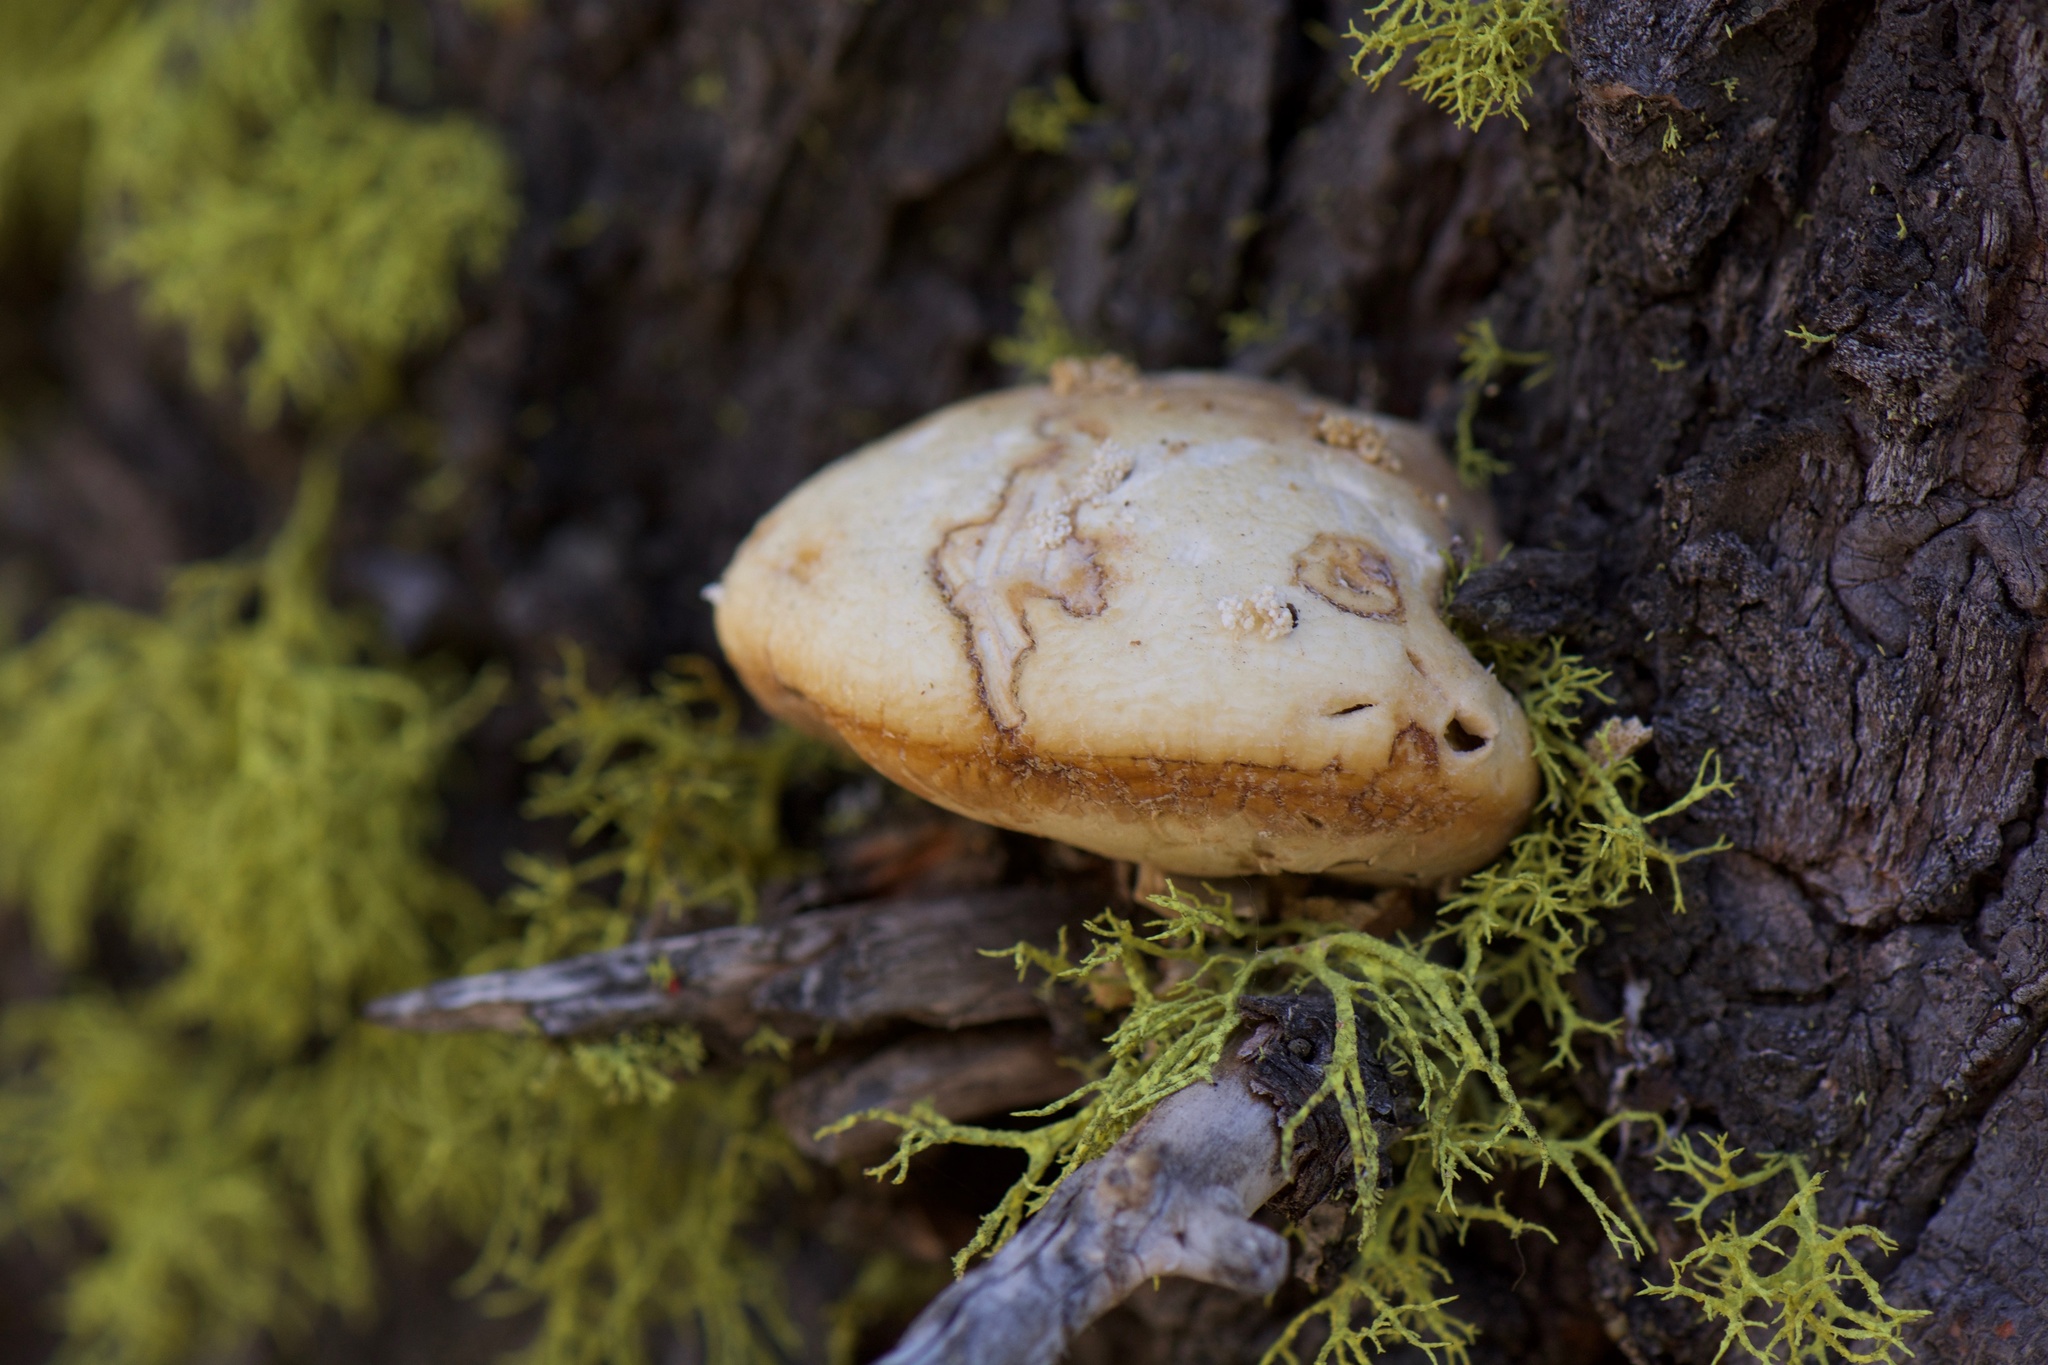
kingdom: Fungi
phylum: Basidiomycota
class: Agaricomycetes
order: Polyporales
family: Polyporaceae
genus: Cryptoporus
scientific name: Cryptoporus volvatus
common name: Veiled polypore
